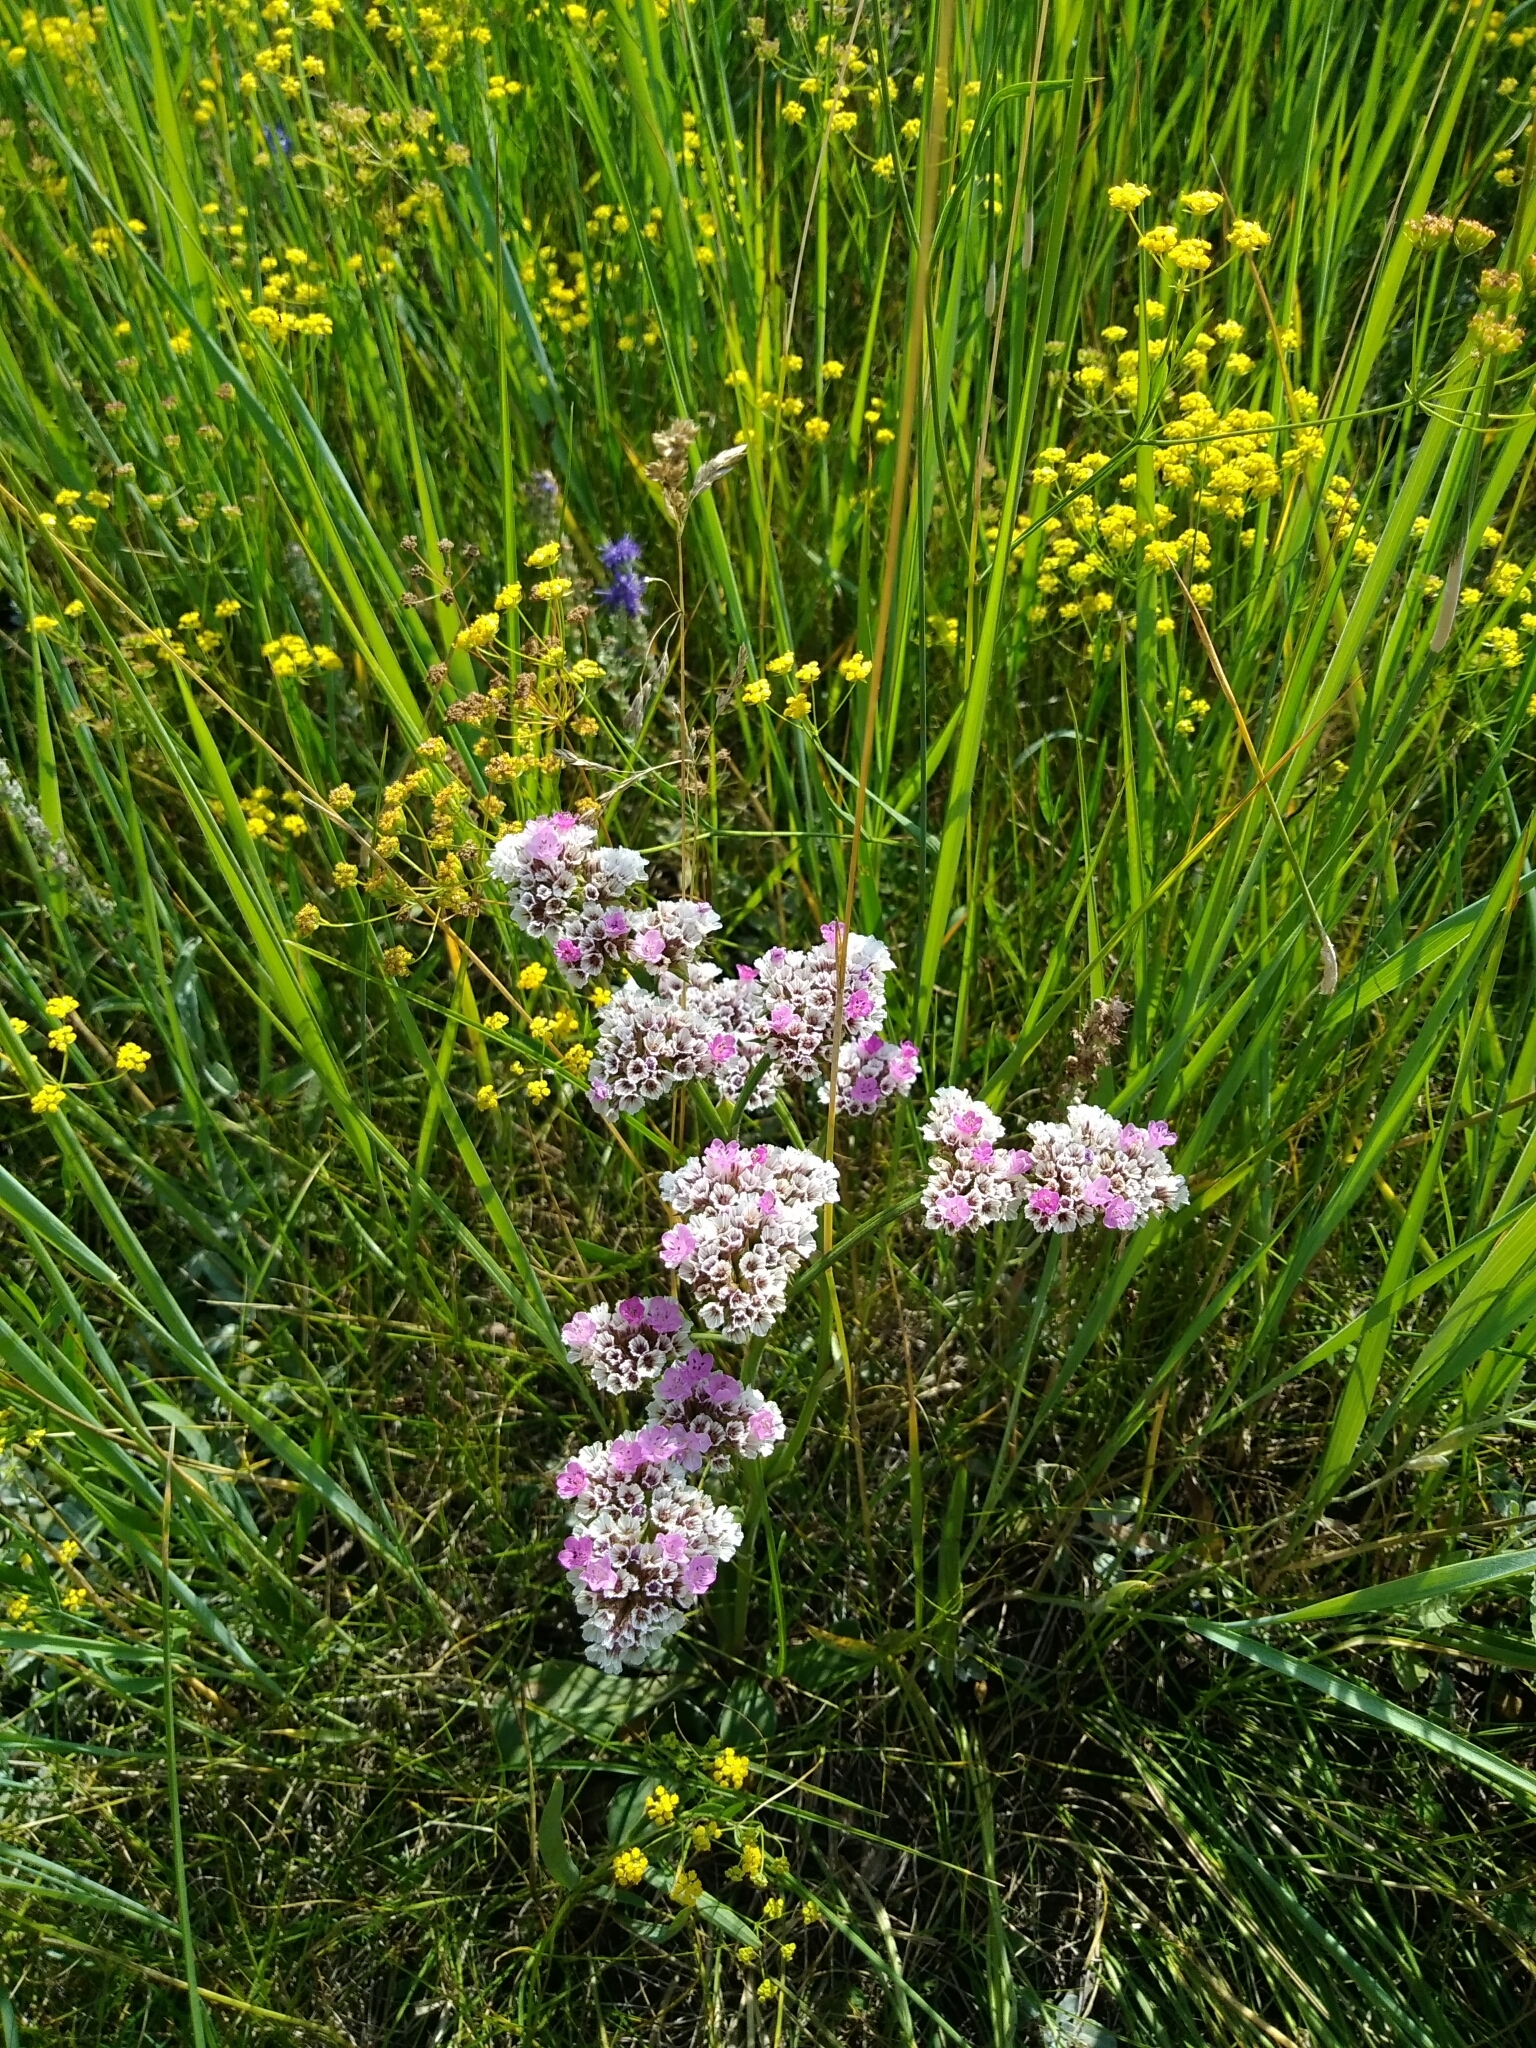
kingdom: Plantae
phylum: Tracheophyta
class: Magnoliopsida
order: Caryophyllales
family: Plumbaginaceae
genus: Goniolimon
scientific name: Goniolimon speciosum
